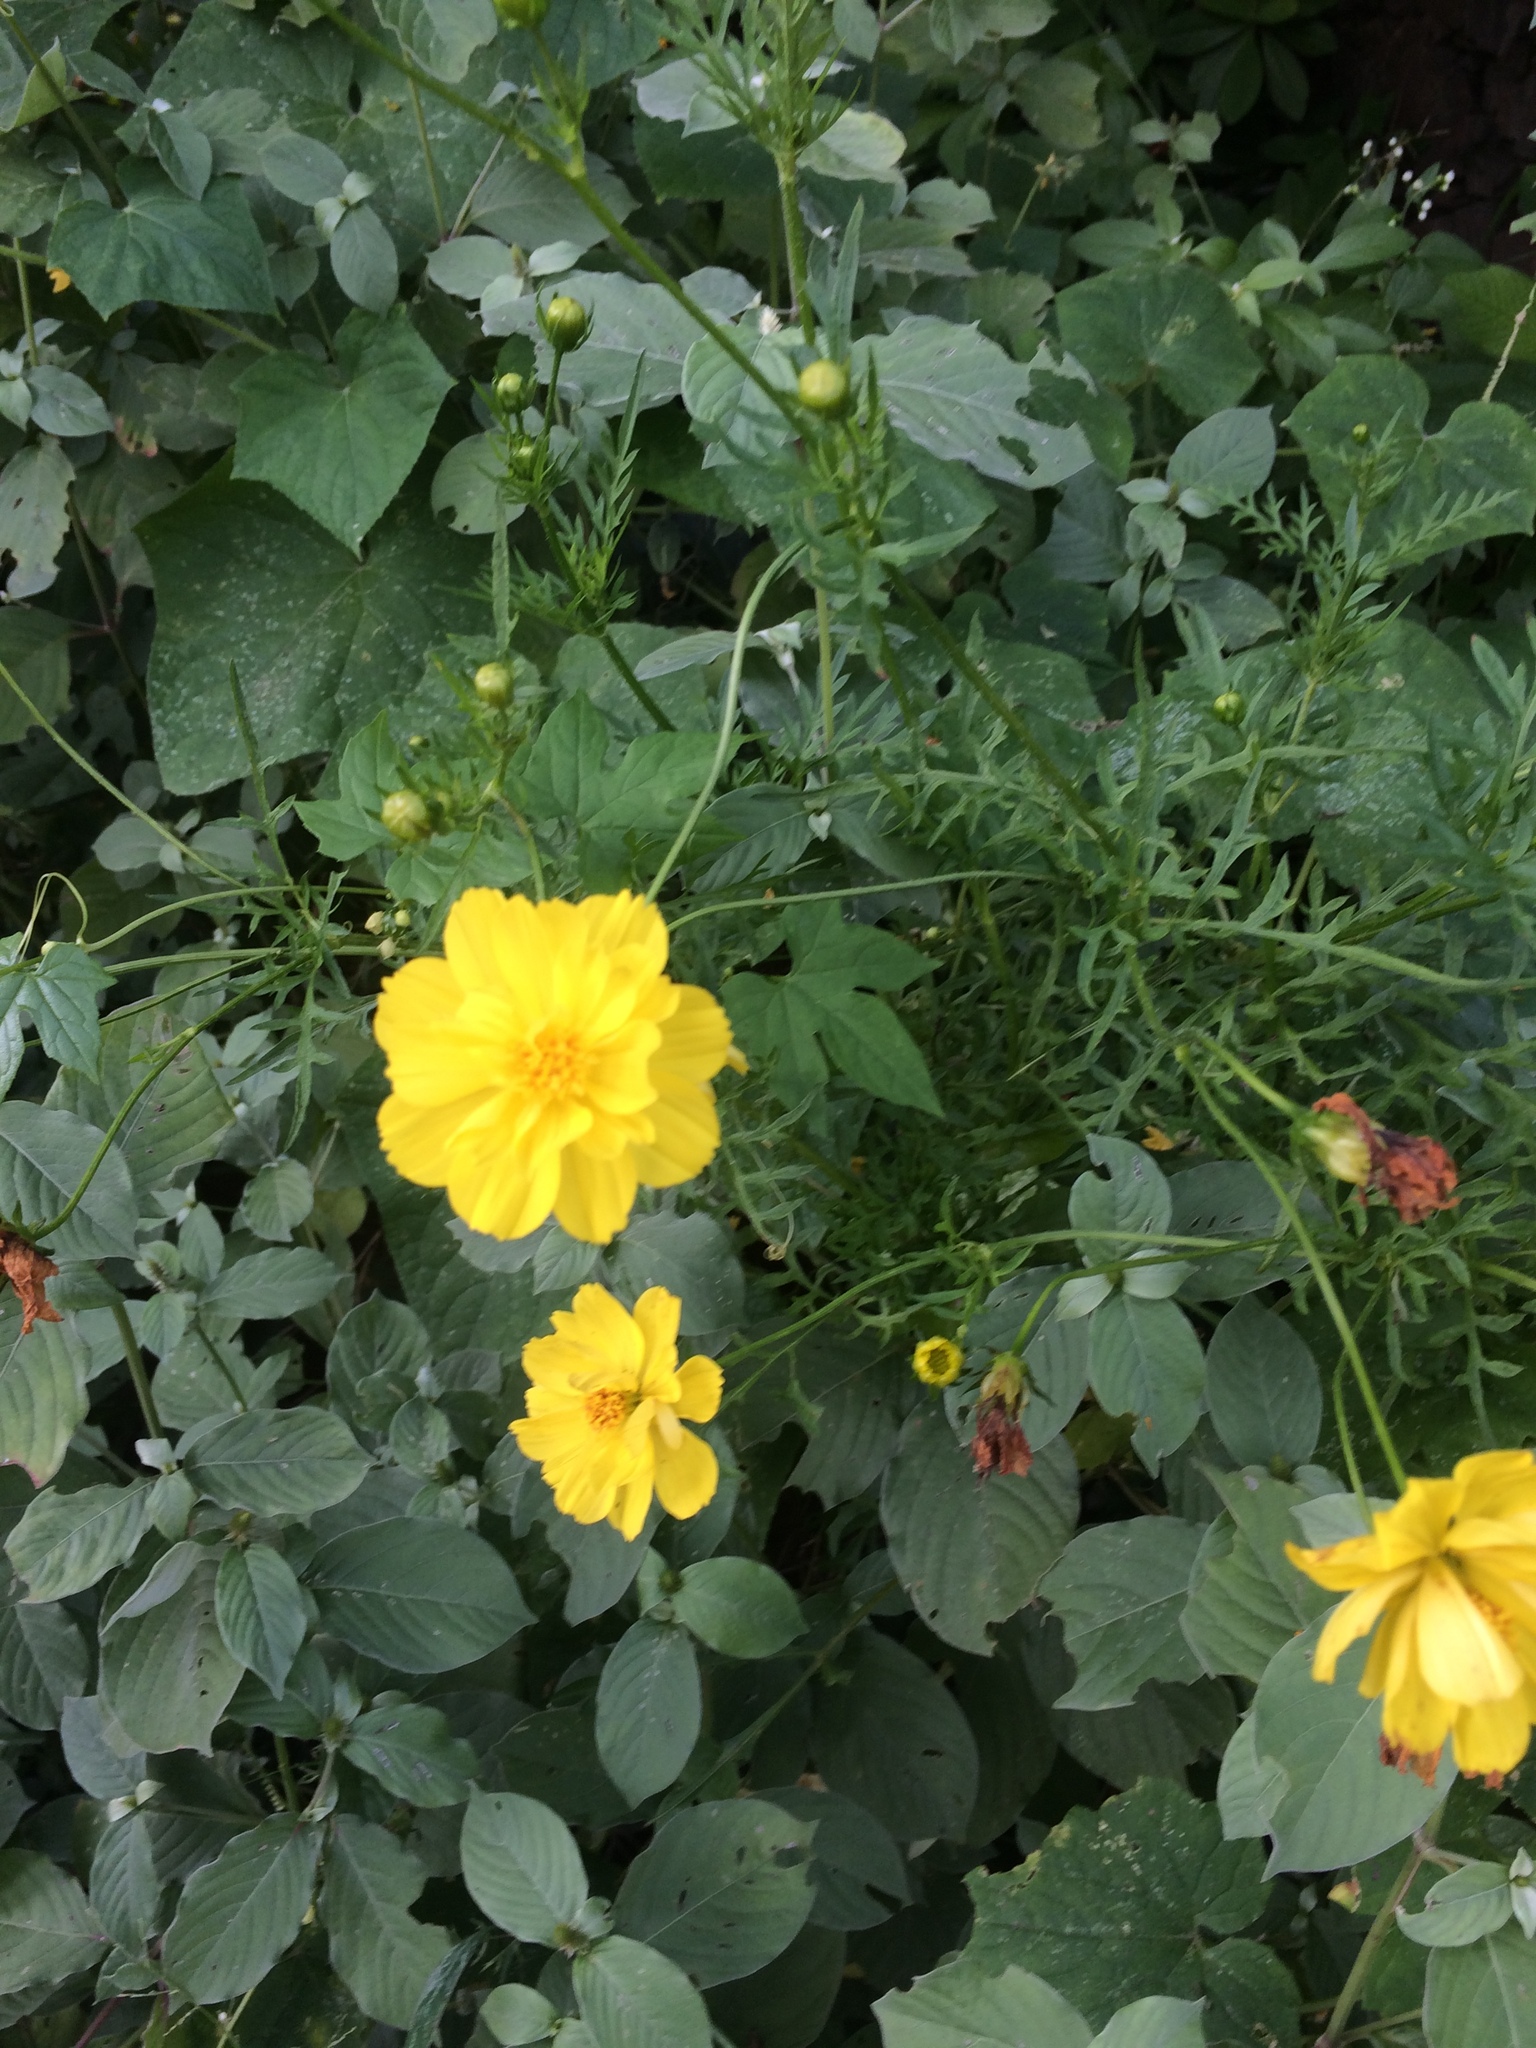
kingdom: Plantae
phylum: Tracheophyta
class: Magnoliopsida
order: Asterales
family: Asteraceae
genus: Cosmos
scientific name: Cosmos sulphureus
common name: Sulphur cosmos
